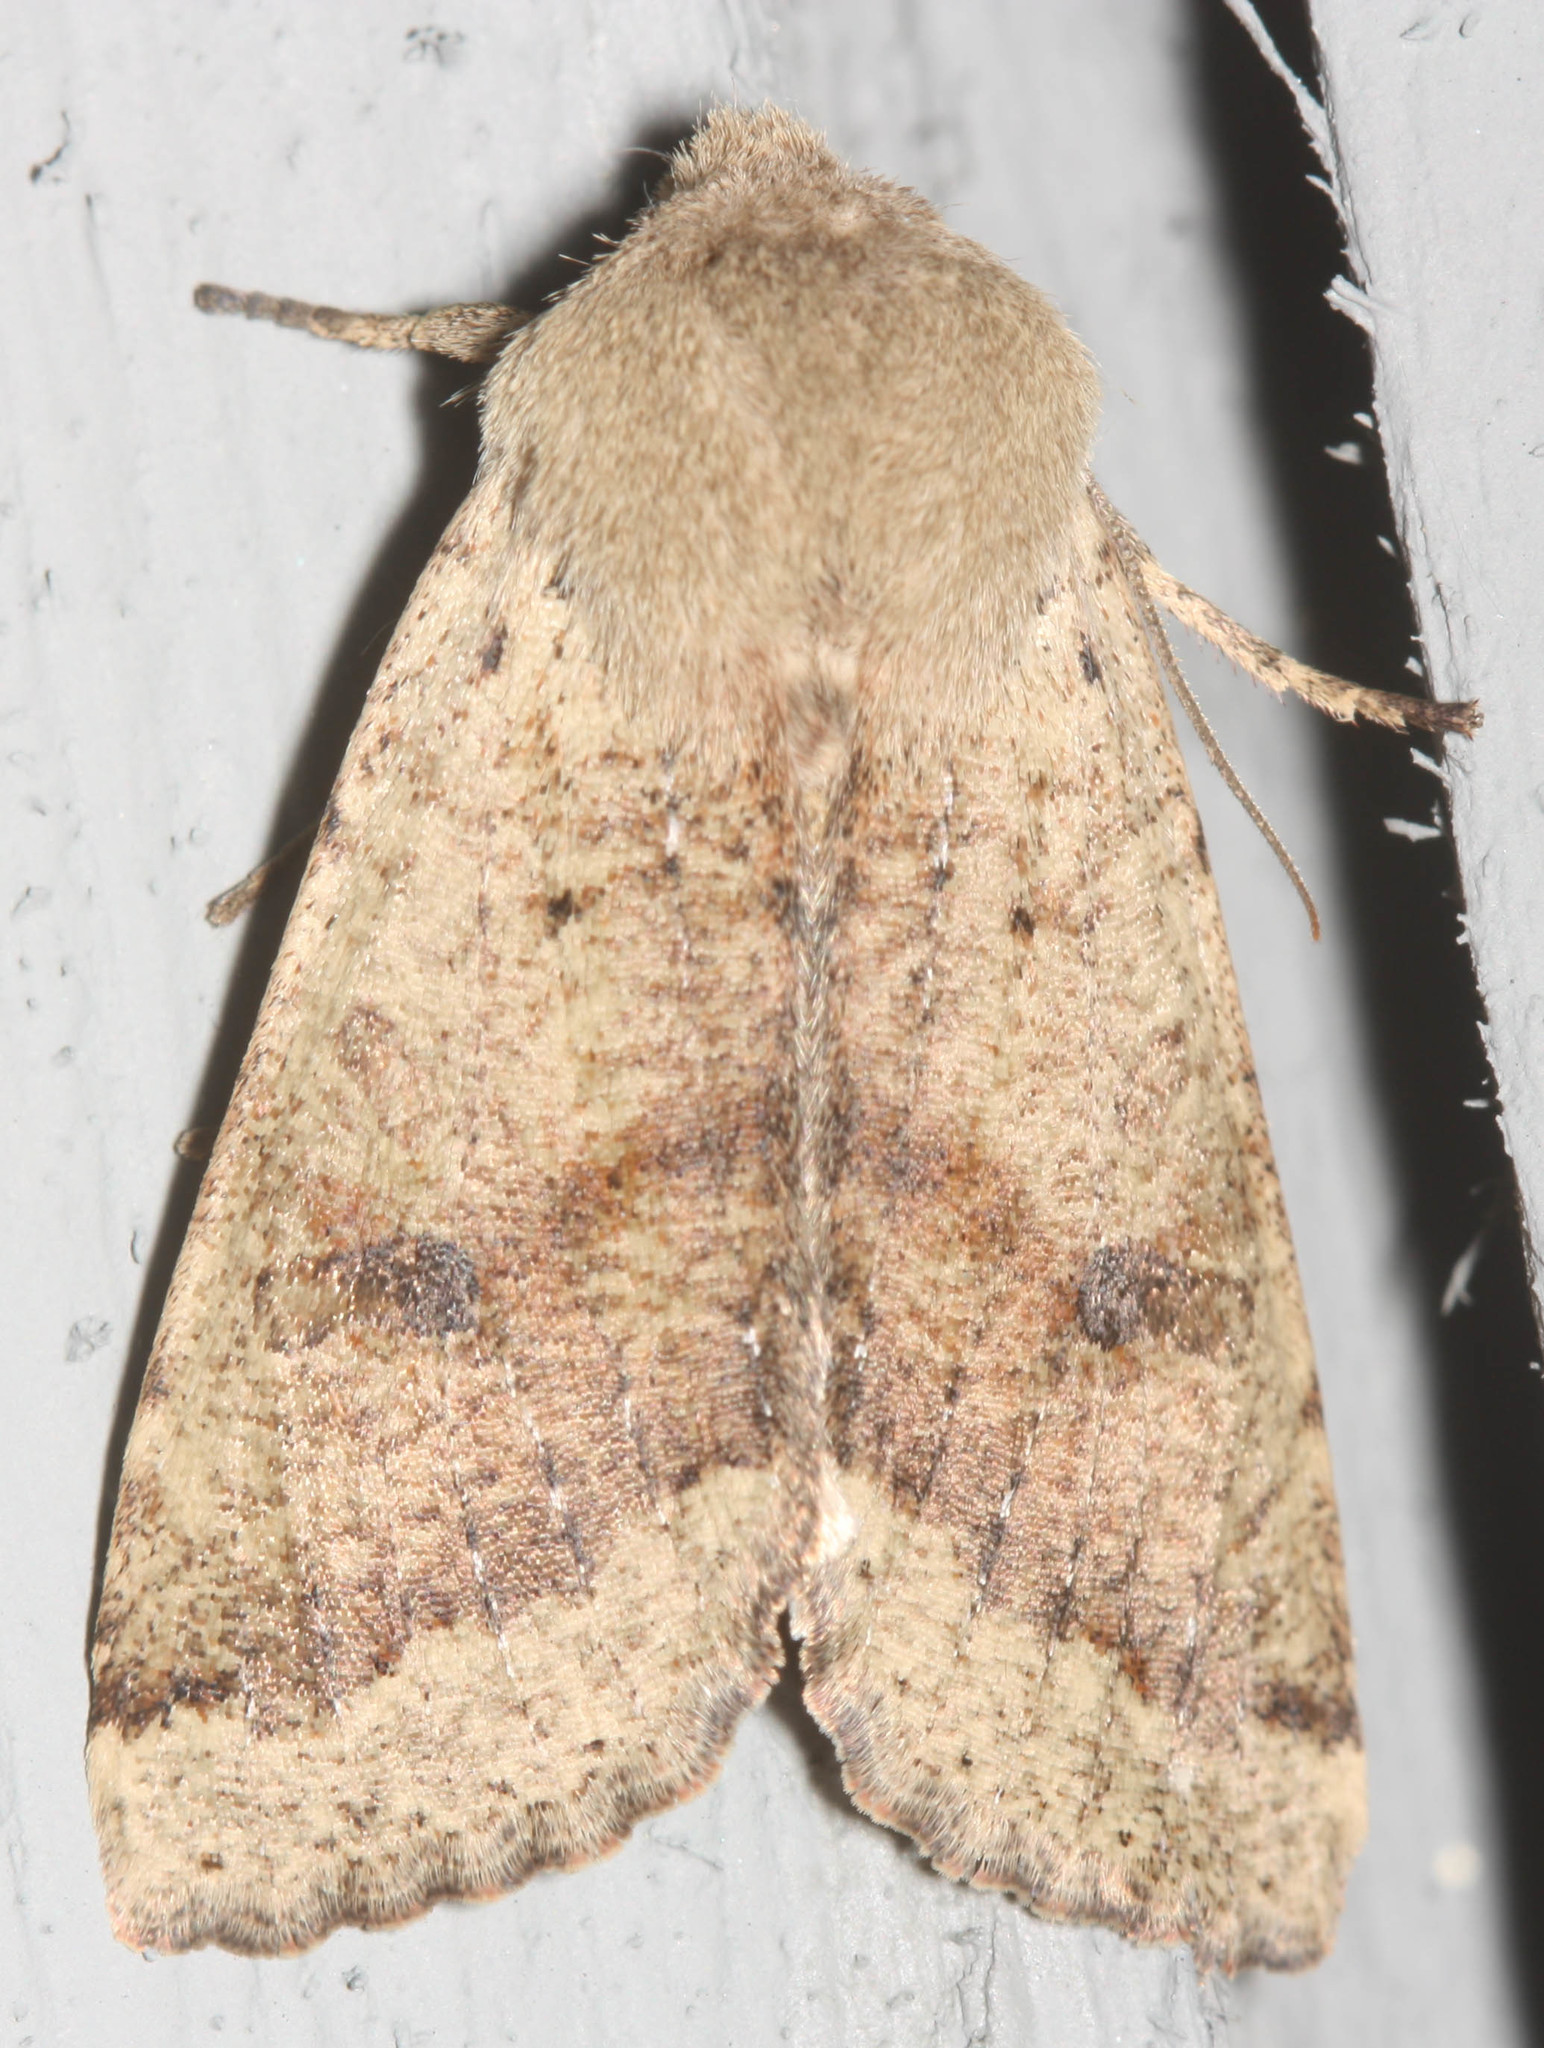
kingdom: Animalia
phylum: Arthropoda
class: Insecta
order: Lepidoptera
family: Noctuidae
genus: Orthosia
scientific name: Orthosia pacifica
